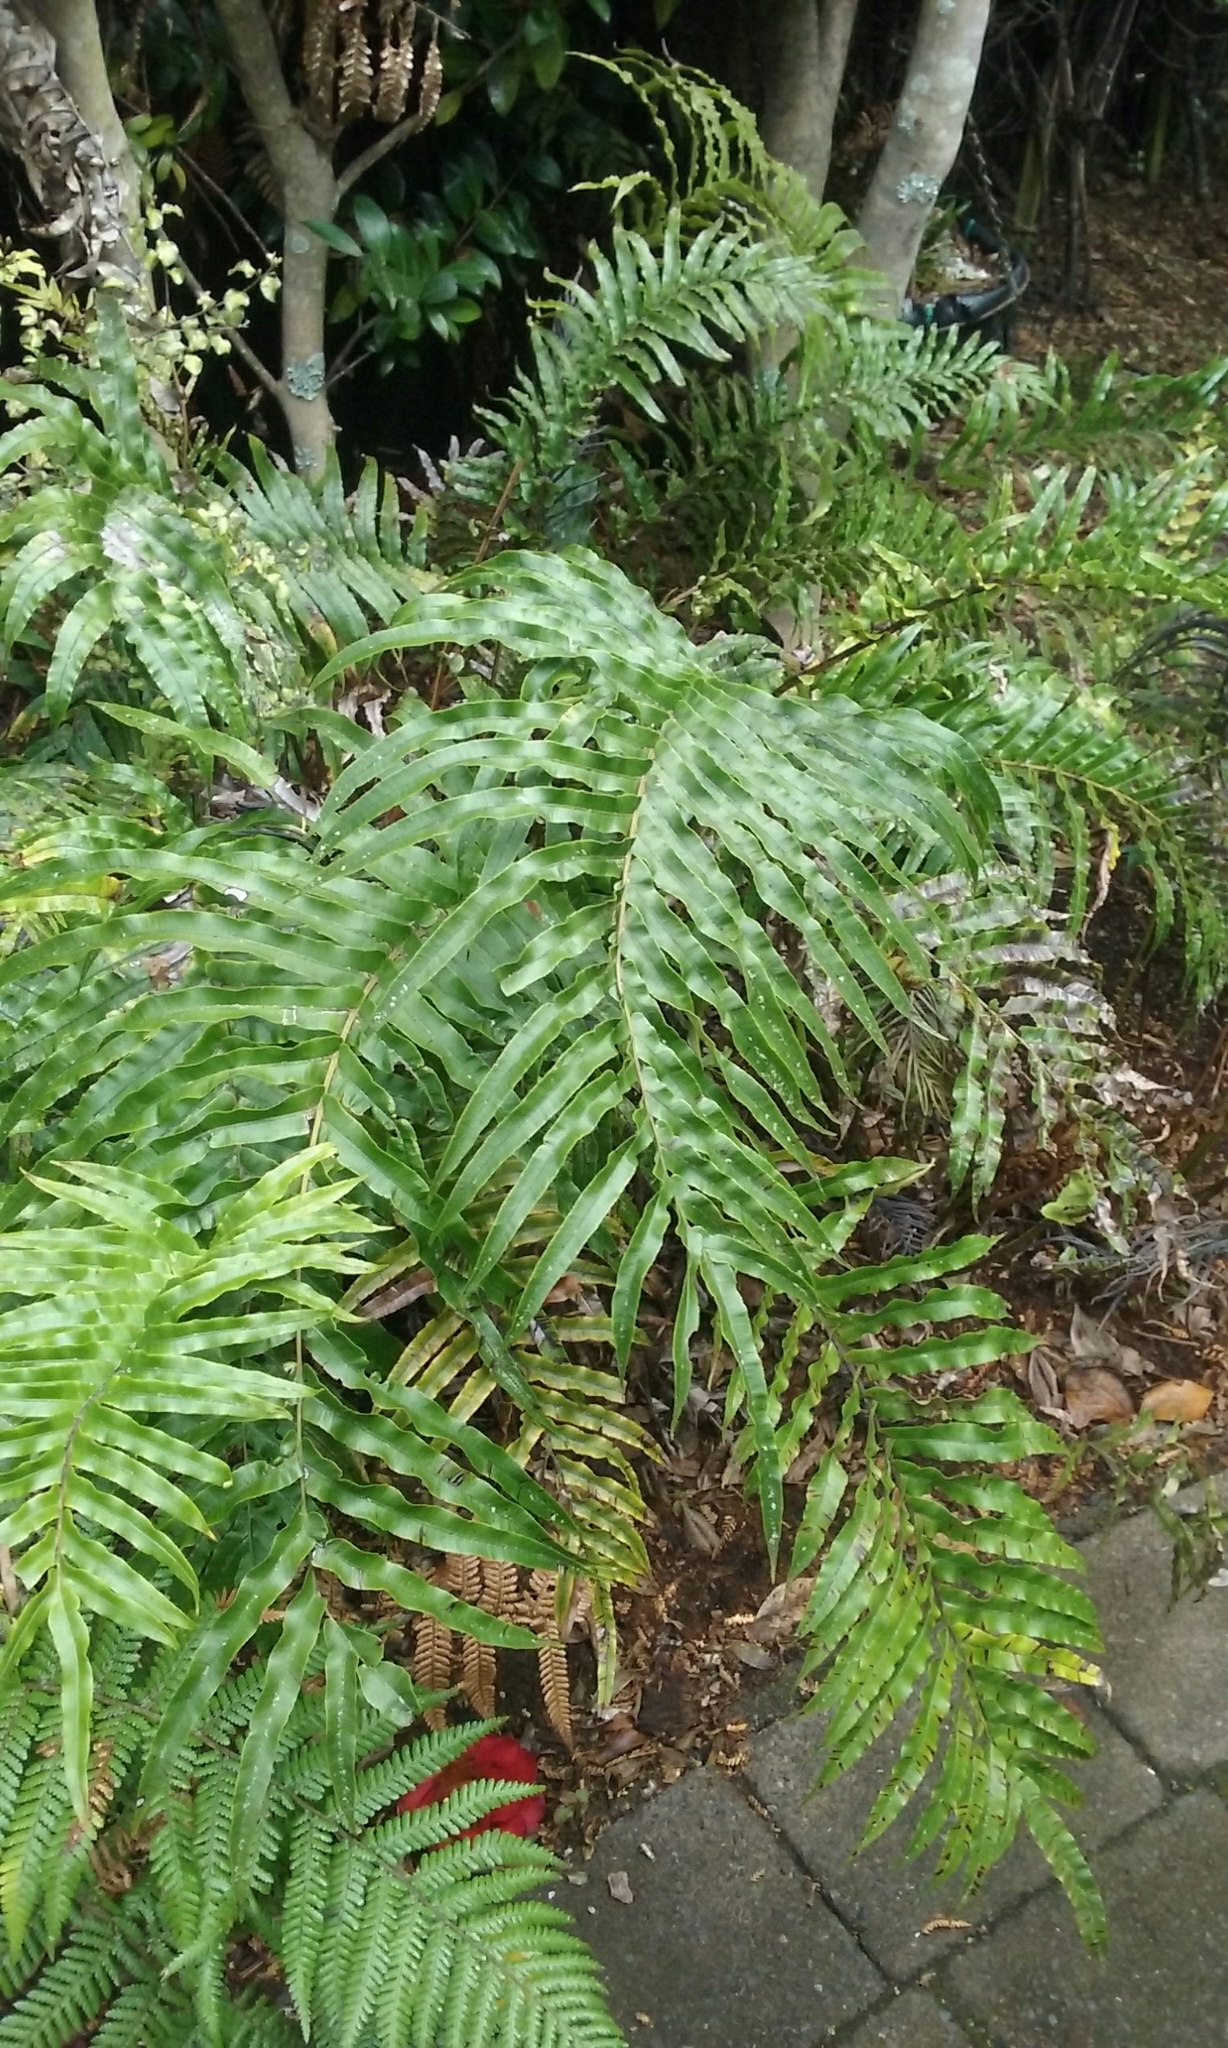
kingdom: Plantae
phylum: Tracheophyta
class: Polypodiopsida
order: Polypodiales
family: Blechnaceae
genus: Parablechnum
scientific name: Parablechnum novae-zelandiae
